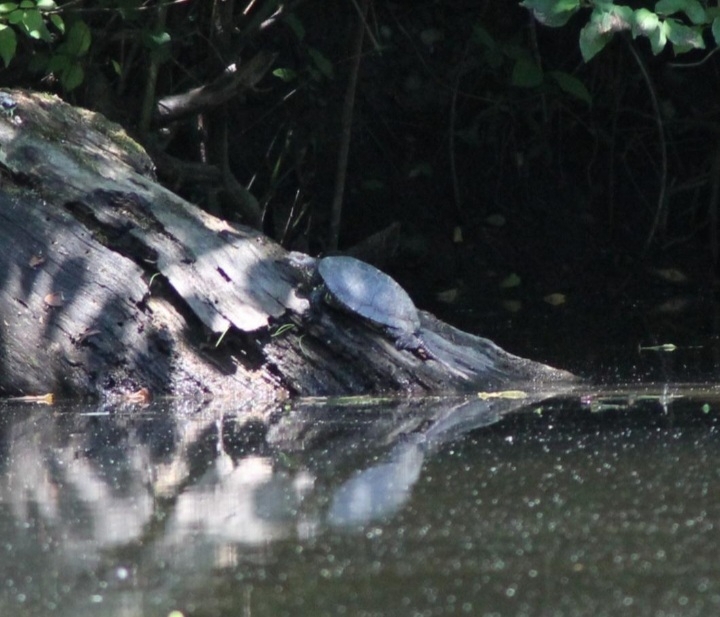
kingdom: Animalia
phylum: Chordata
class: Testudines
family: Emydidae
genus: Emys
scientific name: Emys orbicularis
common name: European pond turtle
